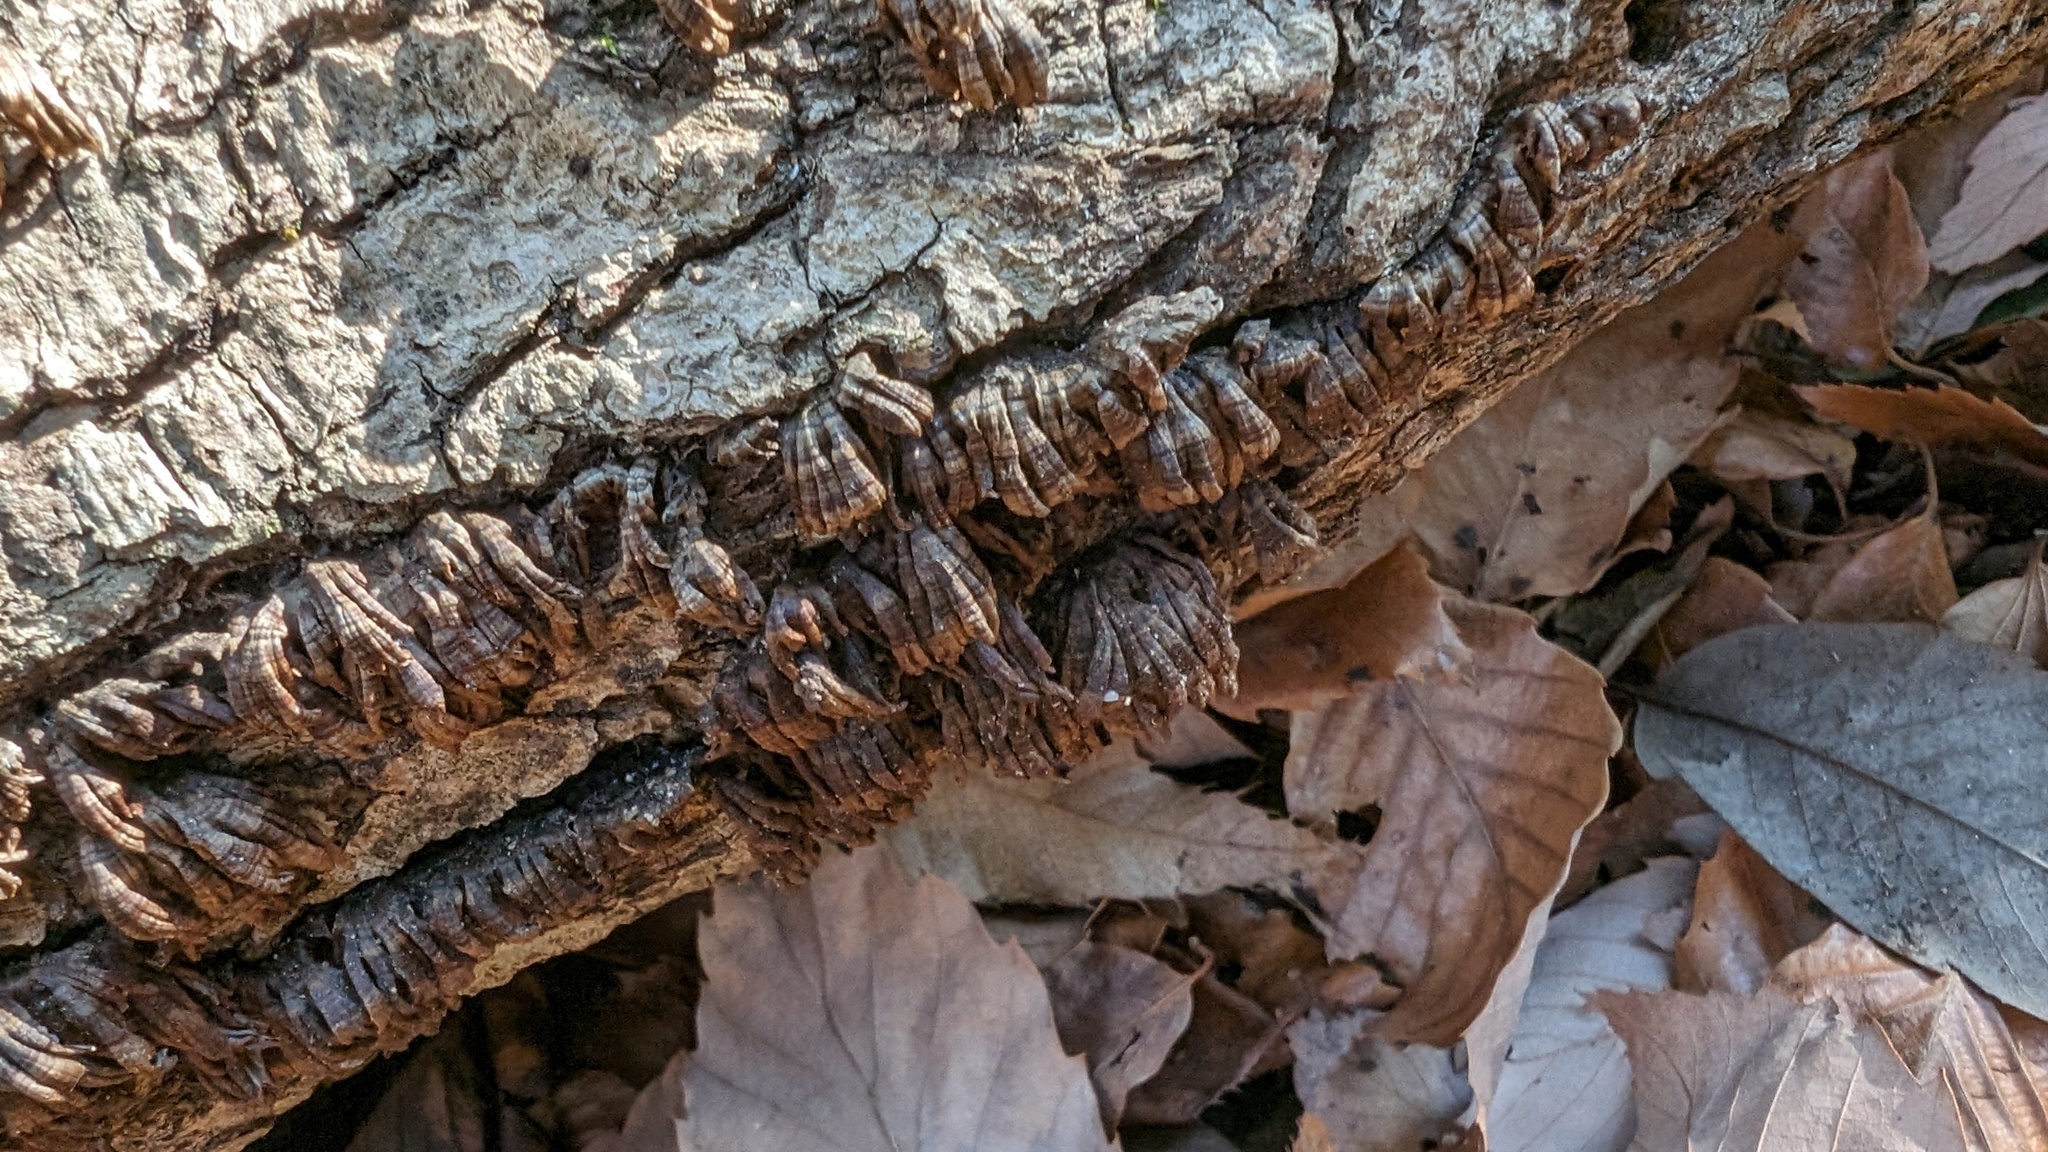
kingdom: Fungi
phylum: Basidiomycota
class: Agaricomycetes
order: Russulales
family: Stereaceae
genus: Xylobolus
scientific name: Xylobolus spectabilis
